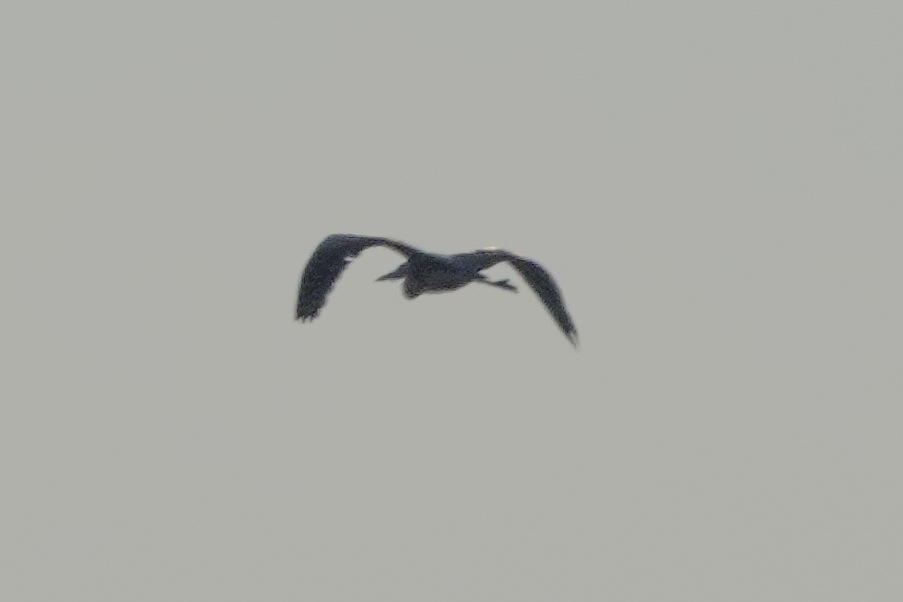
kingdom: Animalia
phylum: Chordata
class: Aves
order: Pelecaniformes
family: Ardeidae
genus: Ardea
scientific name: Ardea cinerea
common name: Grey heron
